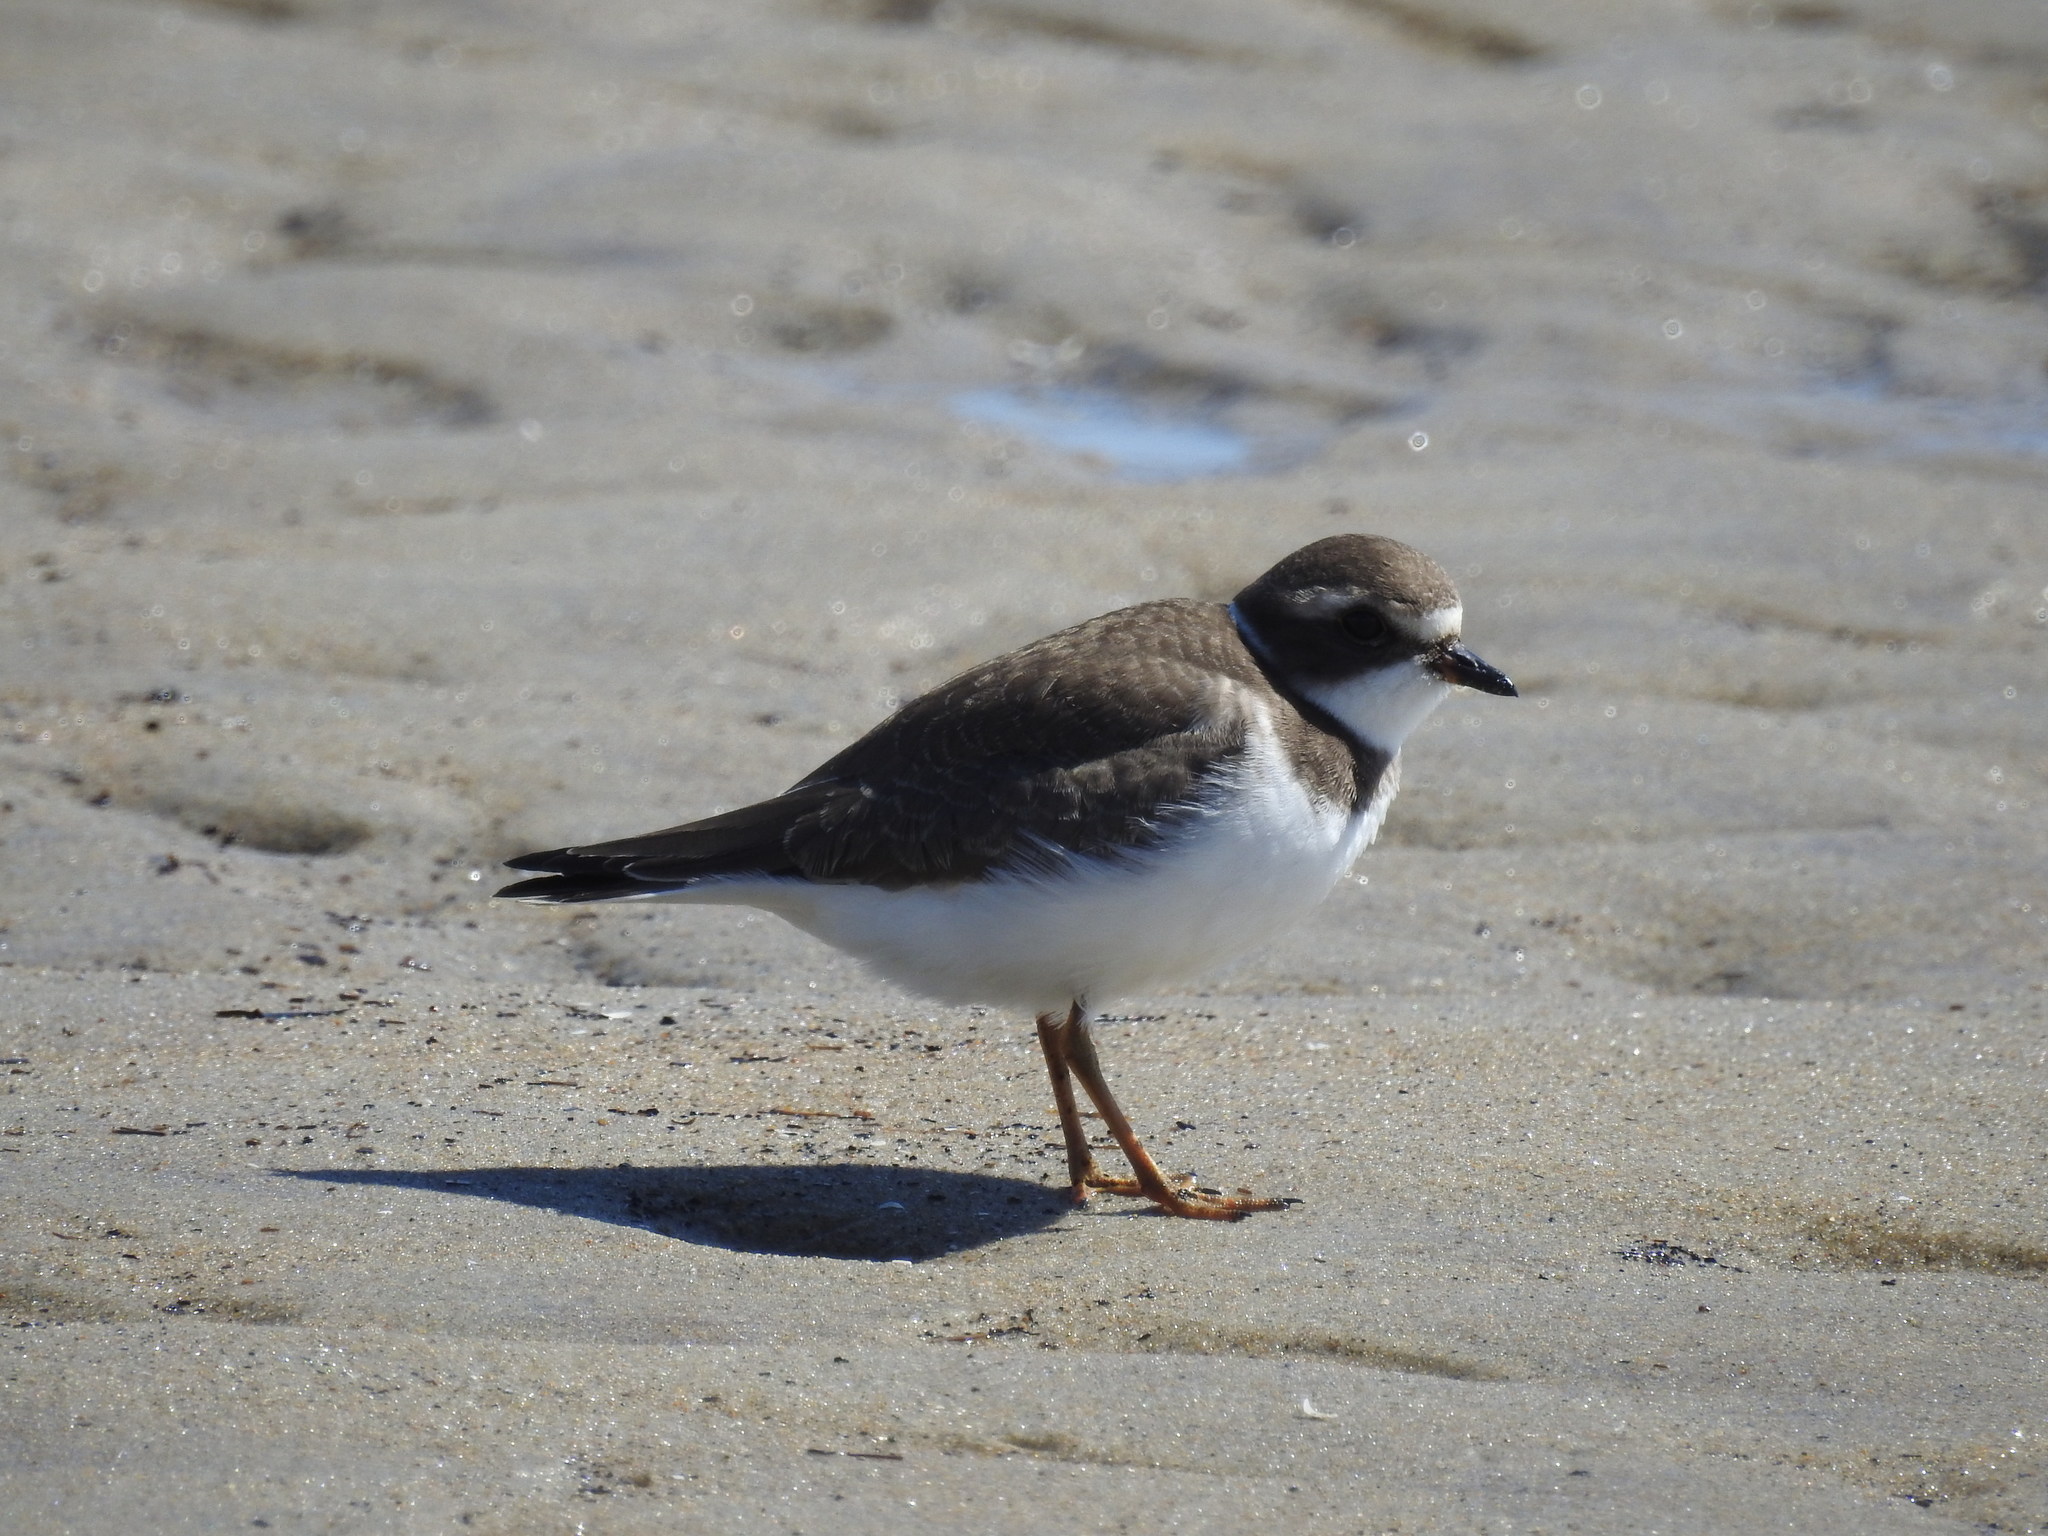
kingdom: Animalia
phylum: Chordata
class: Aves
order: Charadriiformes
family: Charadriidae
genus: Charadrius
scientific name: Charadrius semipalmatus
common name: Semipalmated plover
